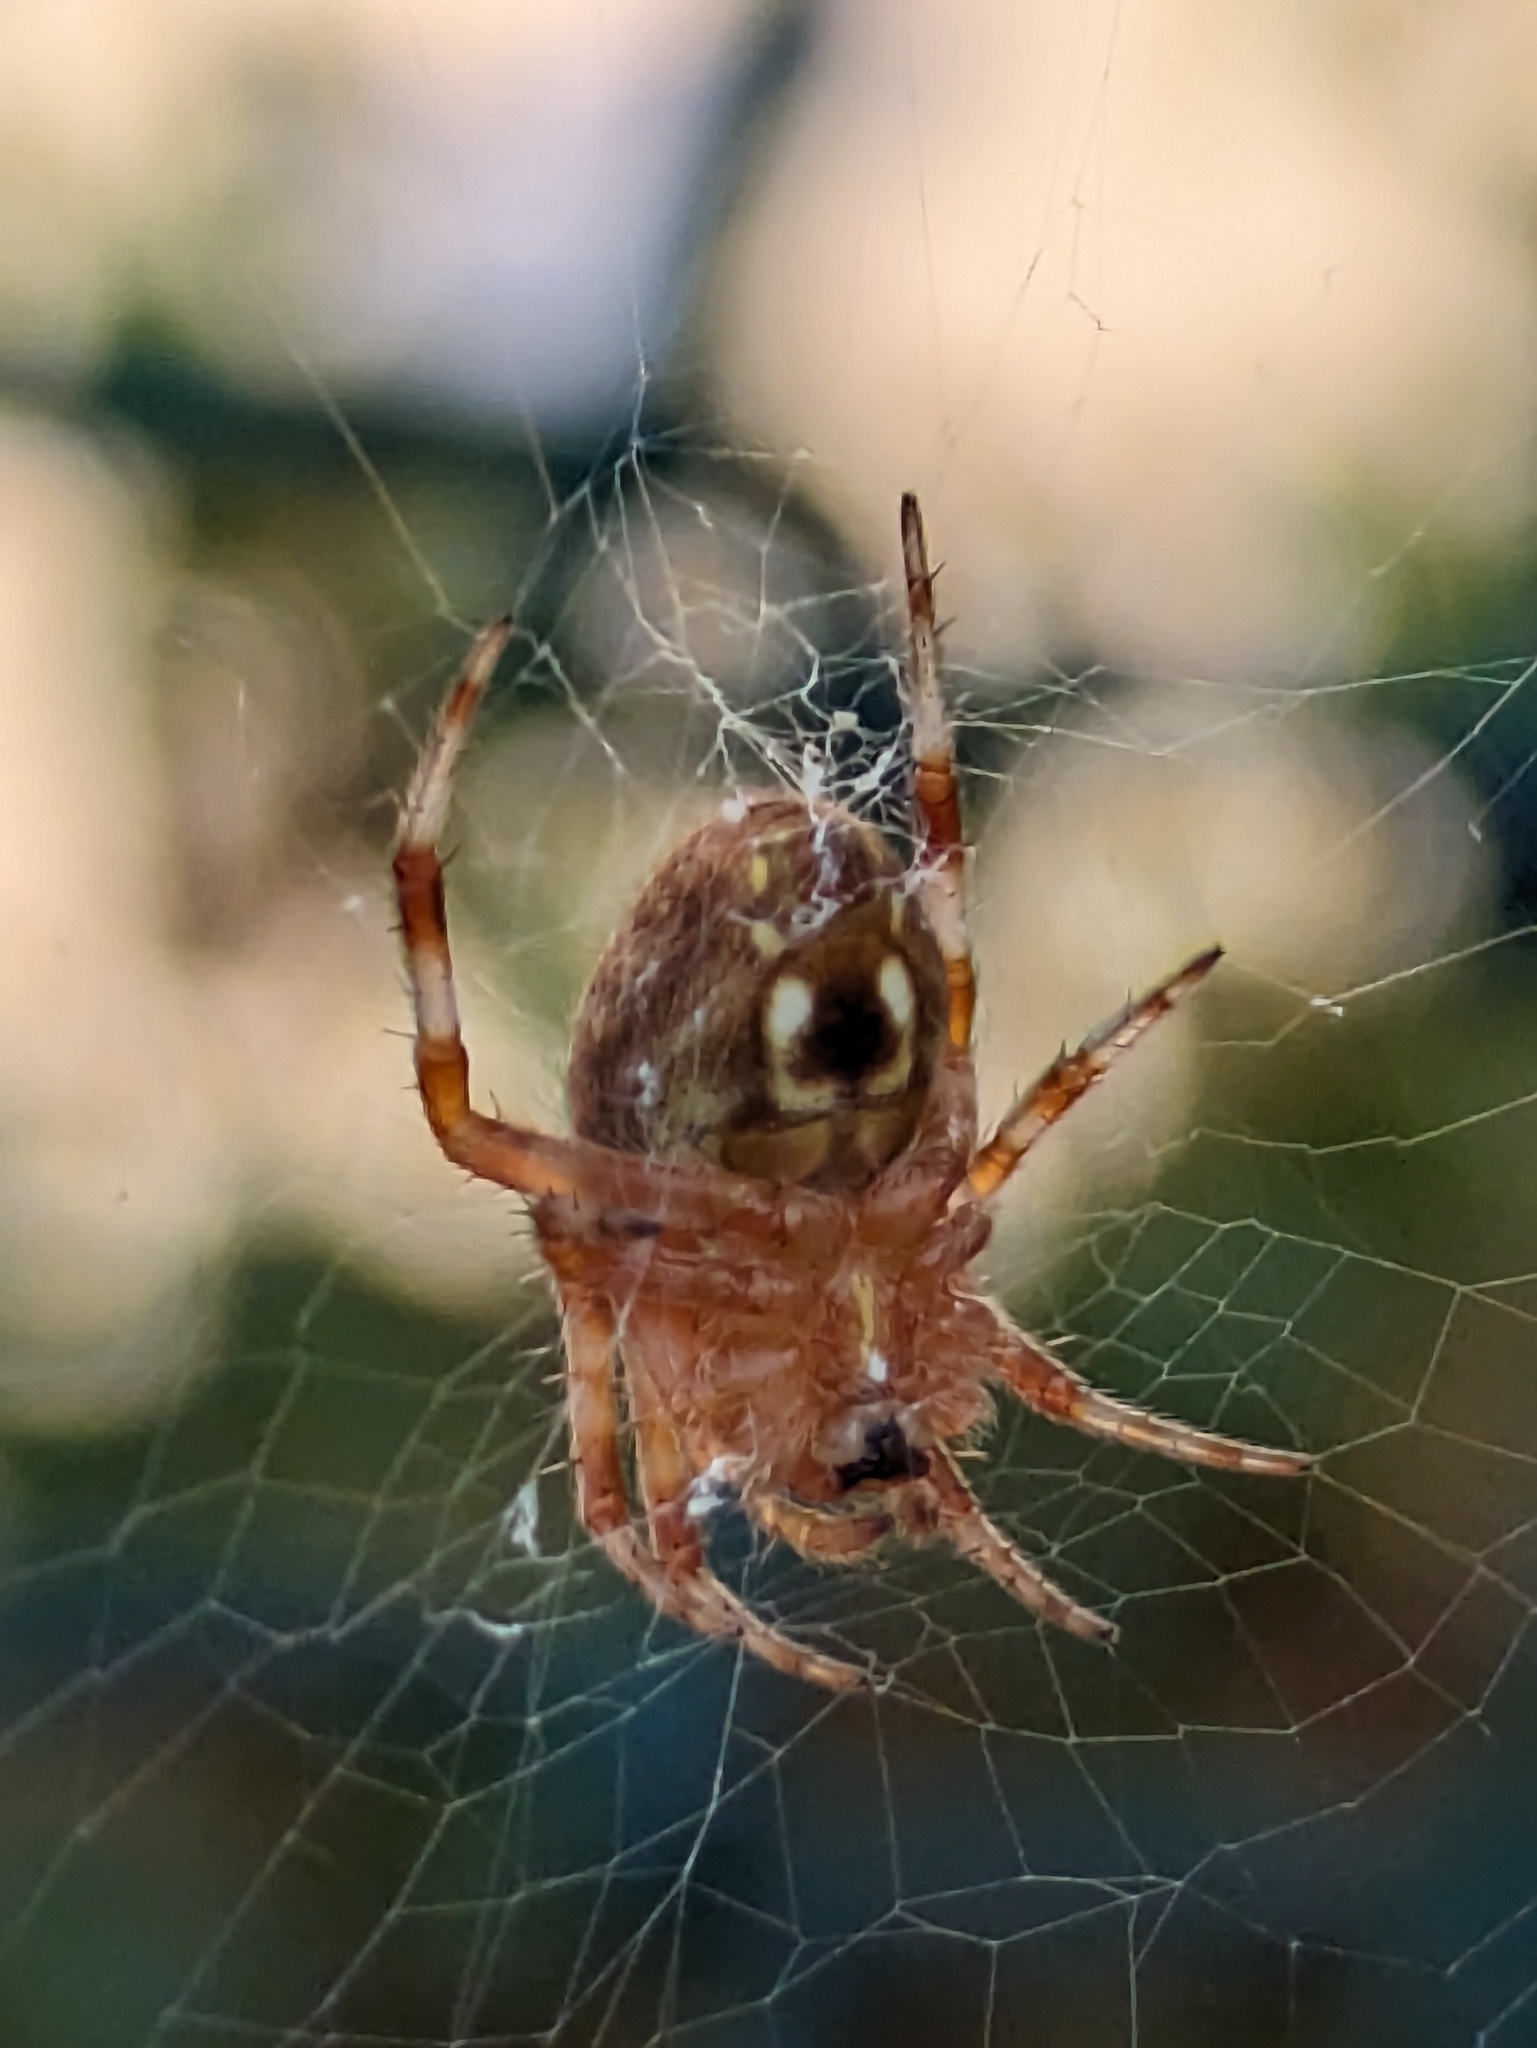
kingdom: Animalia
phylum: Arthropoda
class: Arachnida
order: Araneae
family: Araneidae
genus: Neoscona
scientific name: Neoscona crucifera
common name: Spotted orbweaver
